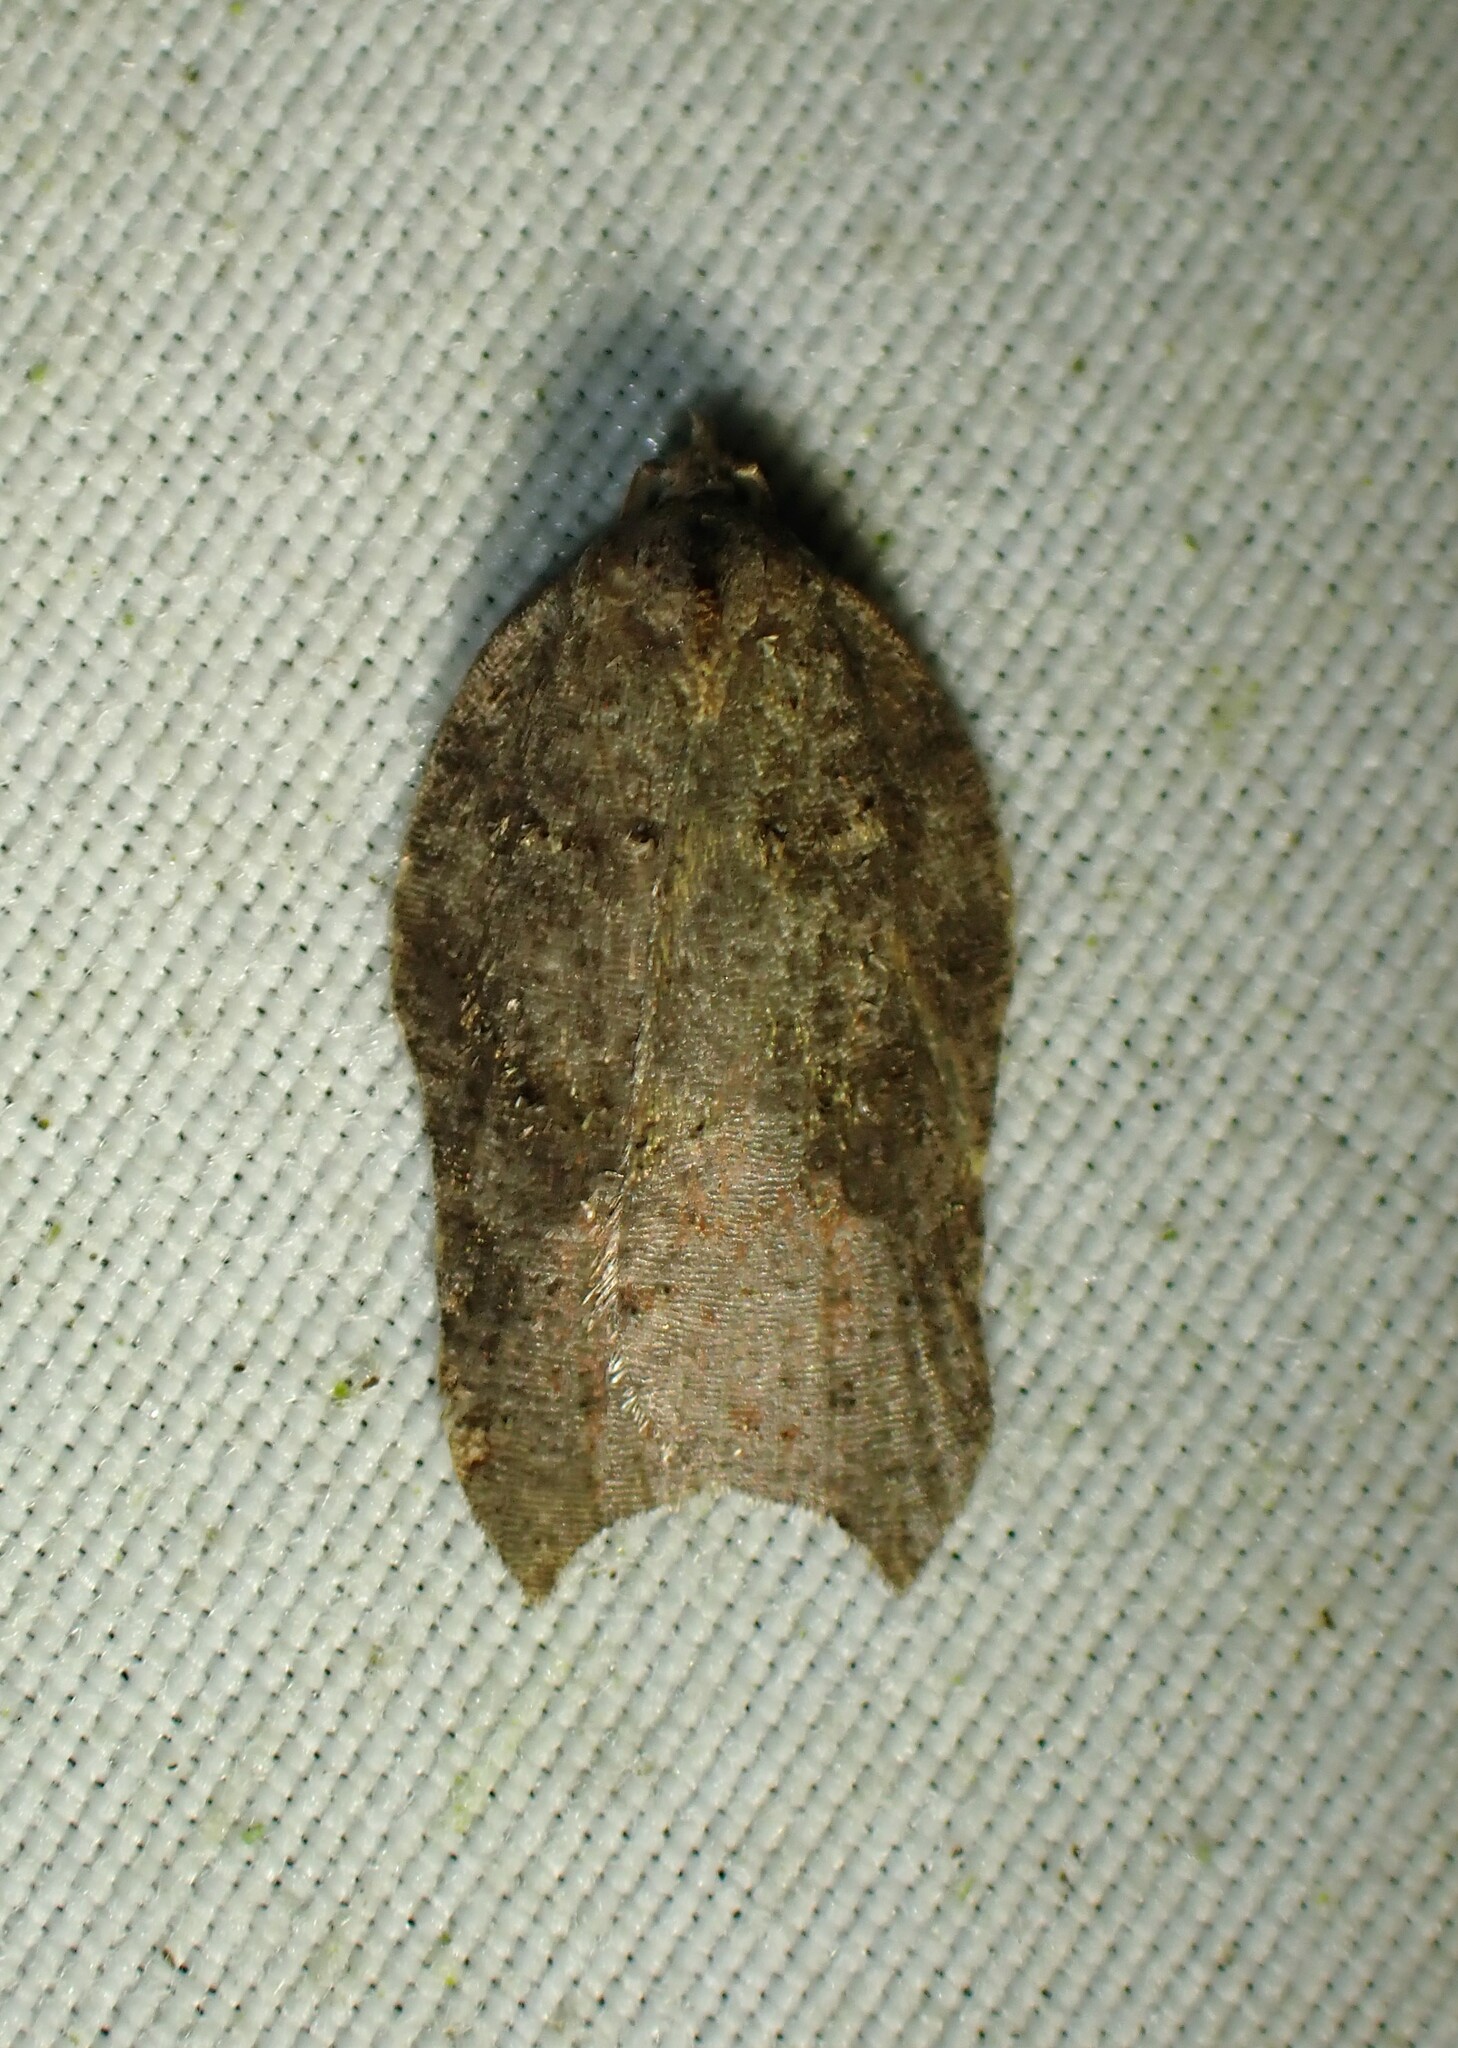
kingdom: Animalia
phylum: Arthropoda
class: Insecta
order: Lepidoptera
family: Tortricidae
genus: Acleris
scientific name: Acleris effractana
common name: Hook-winged tortrix moth
